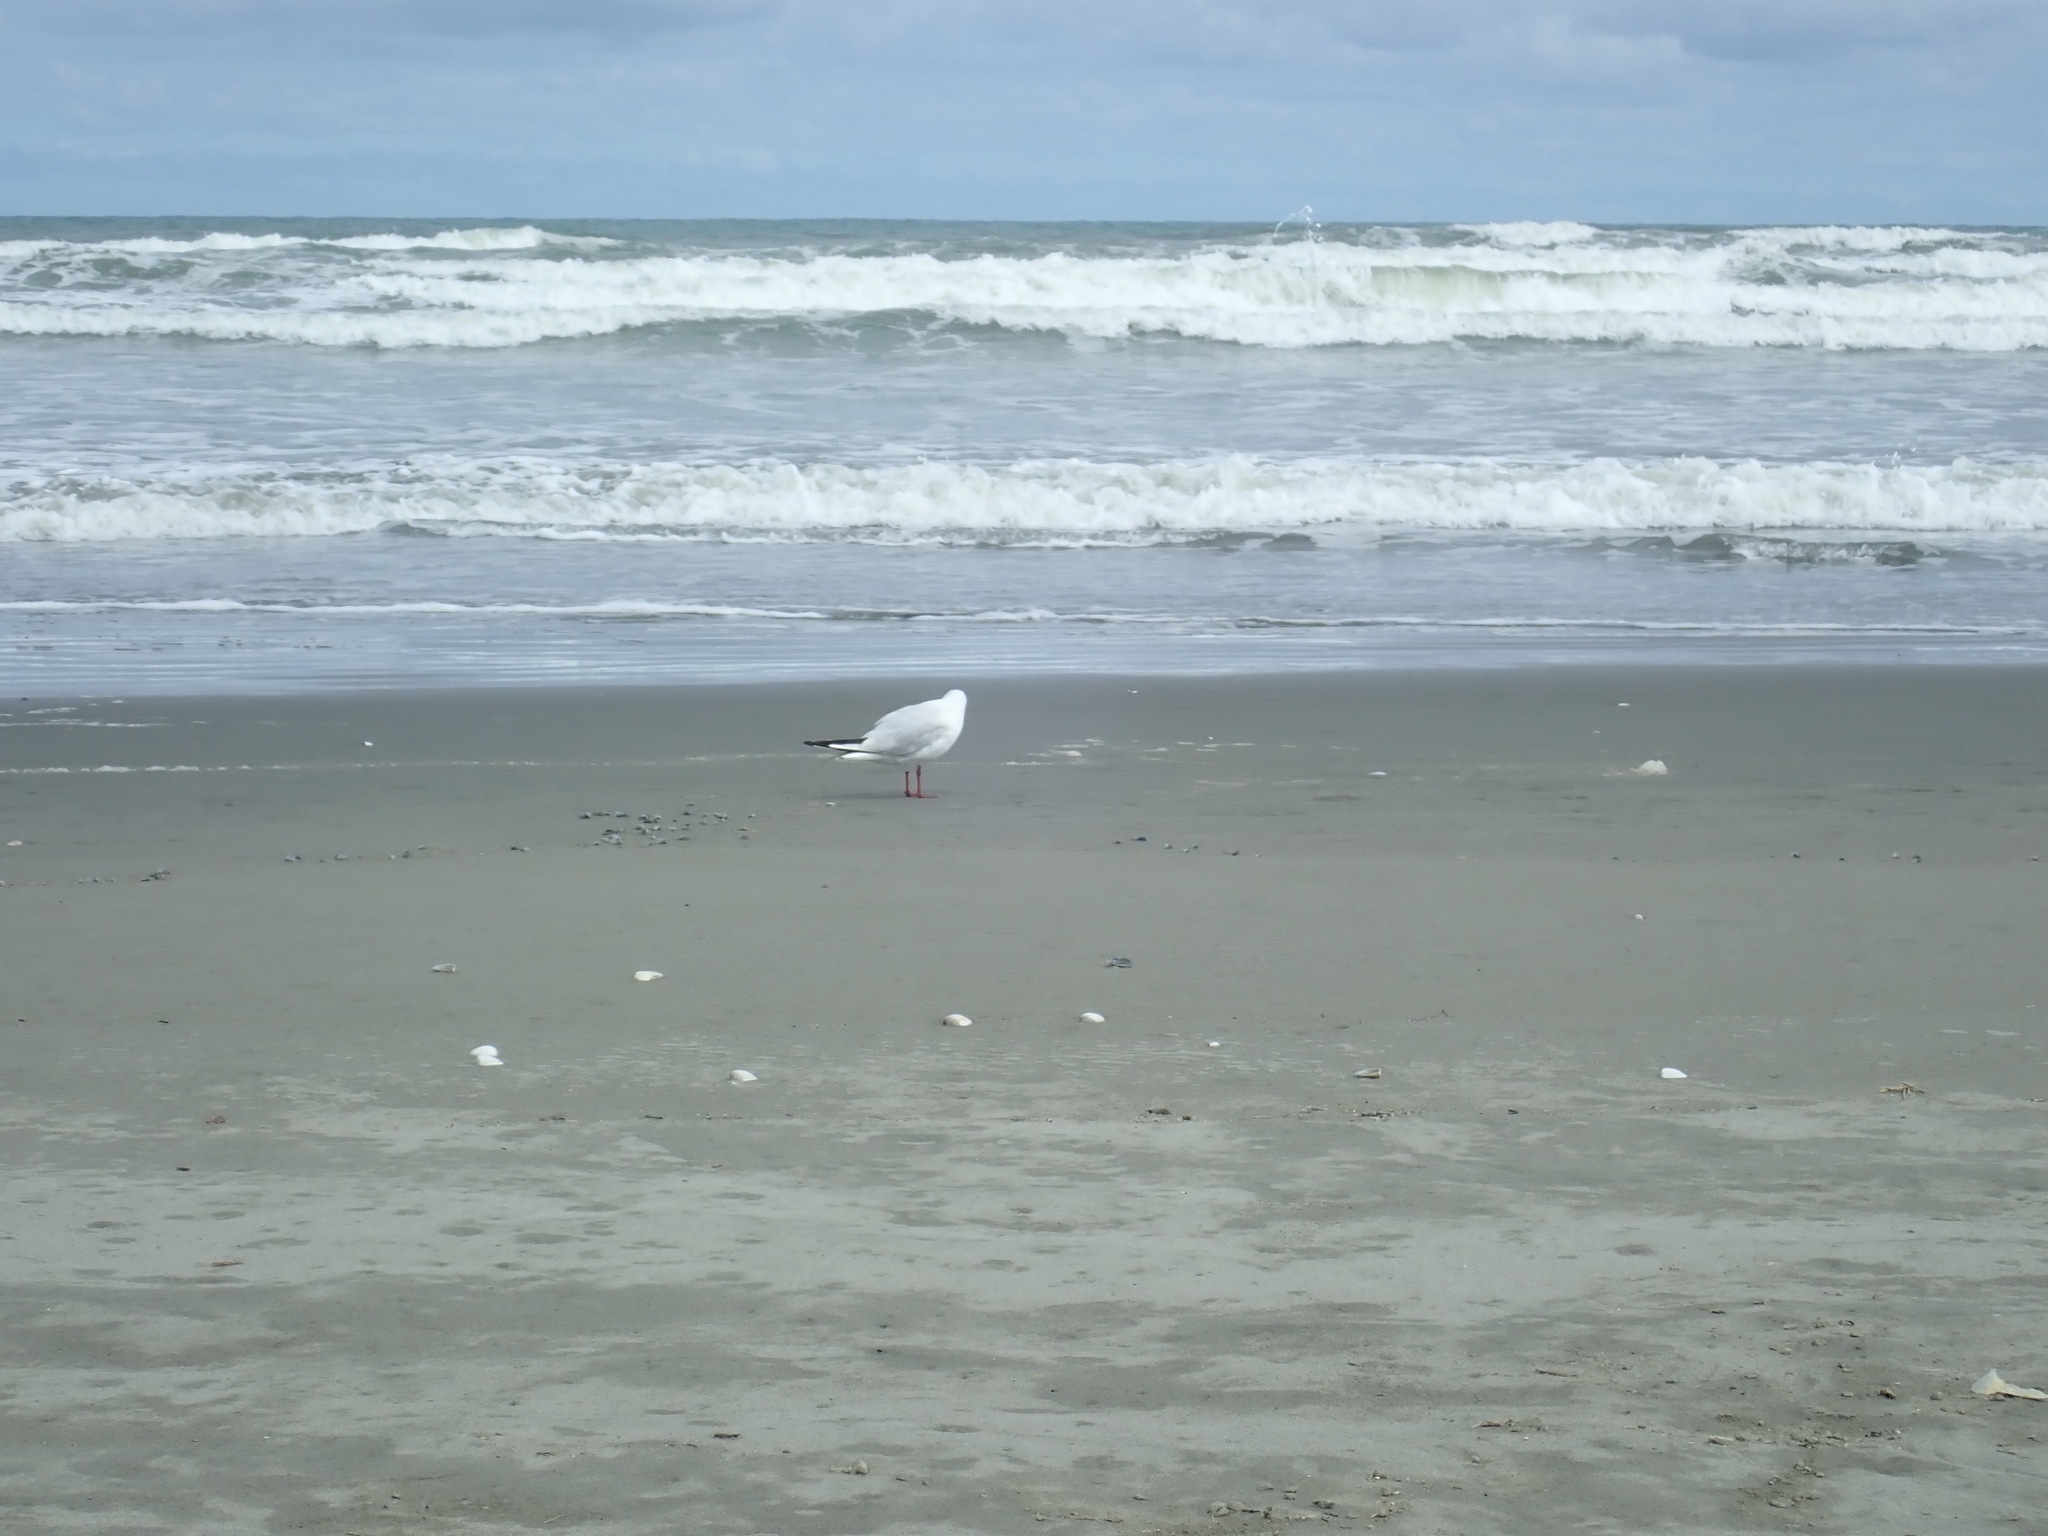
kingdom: Animalia
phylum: Chordata
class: Aves
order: Charadriiformes
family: Laridae
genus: Chroicocephalus
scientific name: Chroicocephalus bulleri
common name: Black-billed gull
